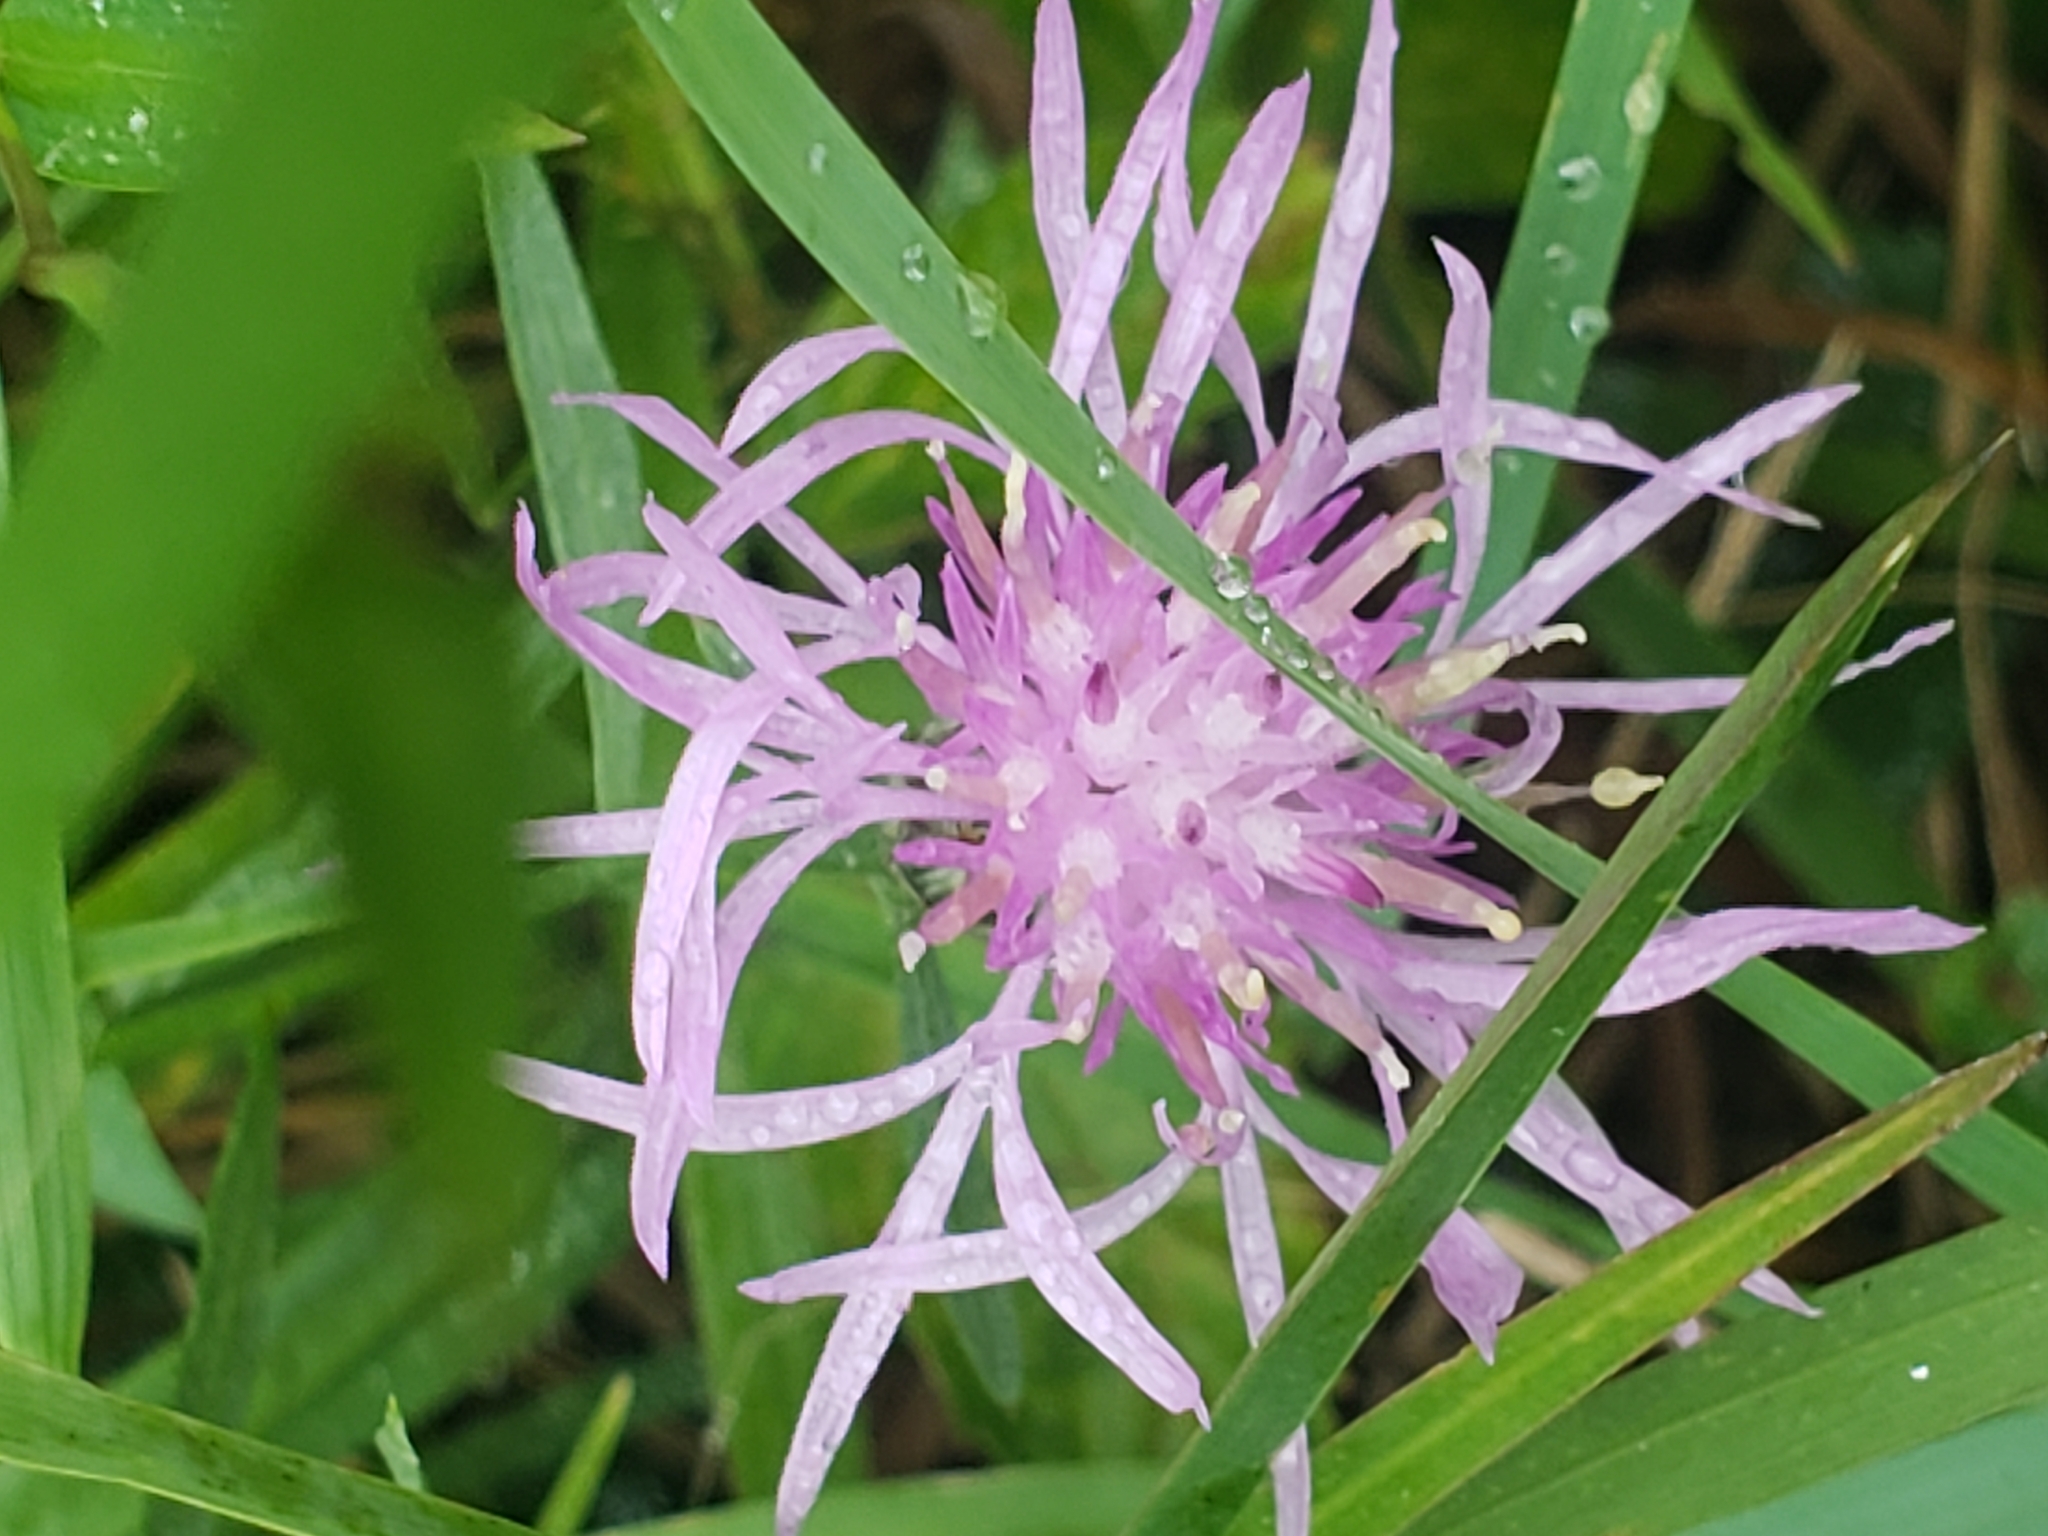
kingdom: Plantae
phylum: Tracheophyta
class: Magnoliopsida
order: Asterales
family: Asteraceae
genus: Centaurea
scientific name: Centaurea stoebe
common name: Spotted knapweed
